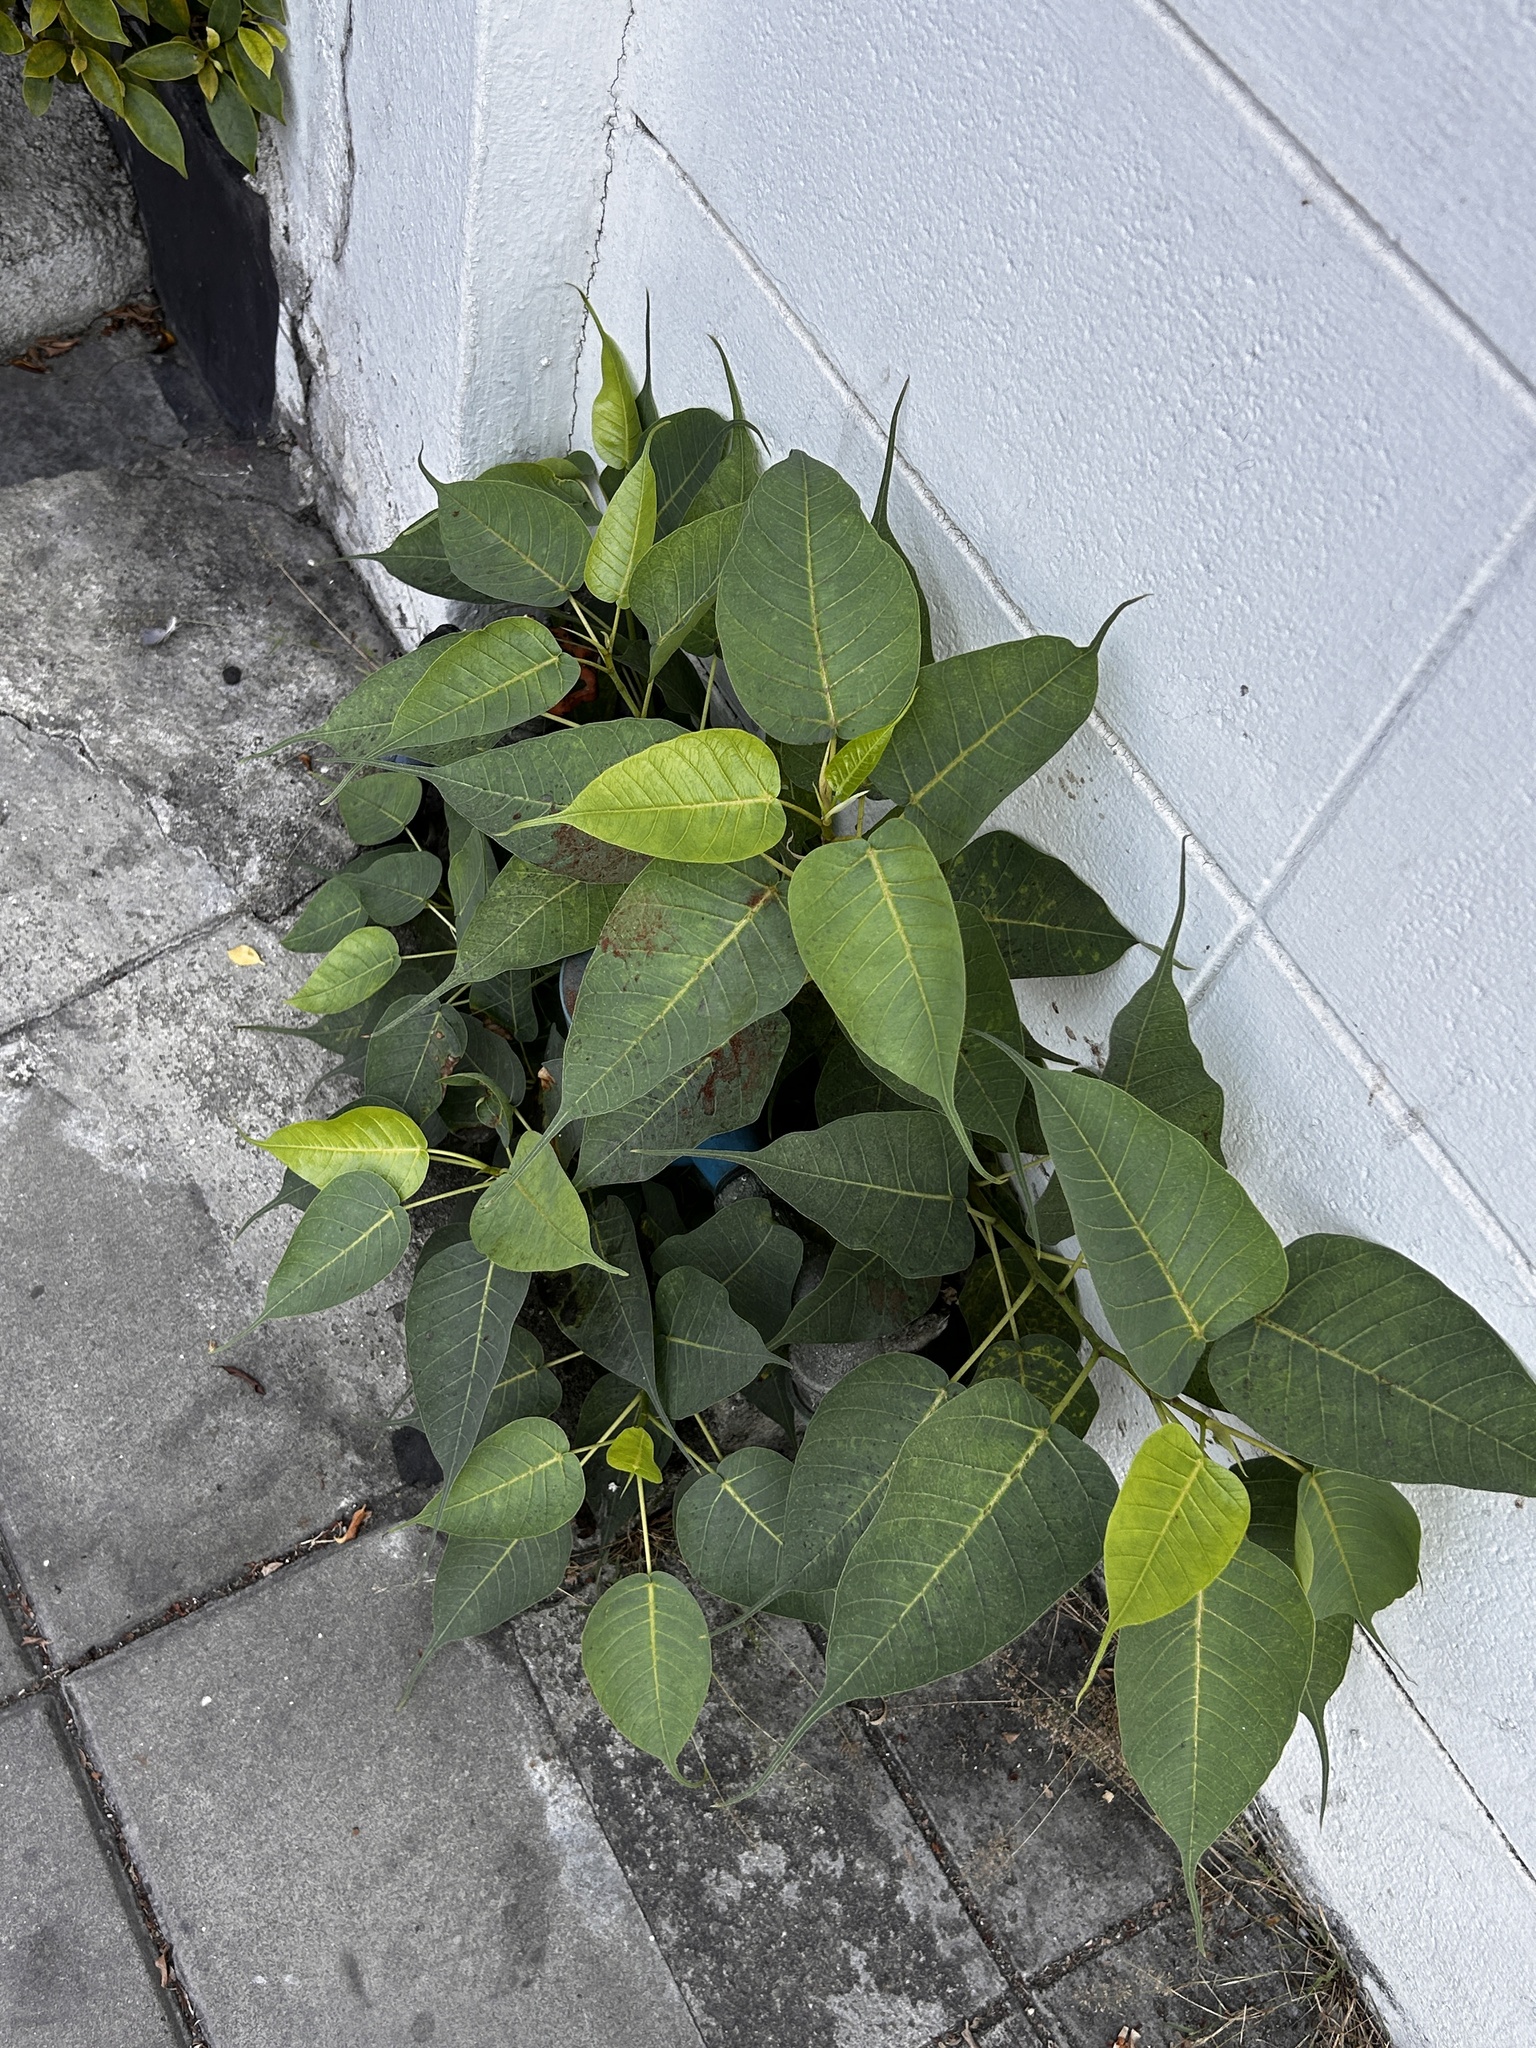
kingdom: Plantae
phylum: Tracheophyta
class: Magnoliopsida
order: Rosales
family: Moraceae
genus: Ficus
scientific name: Ficus religiosa
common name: Bodhi tree
